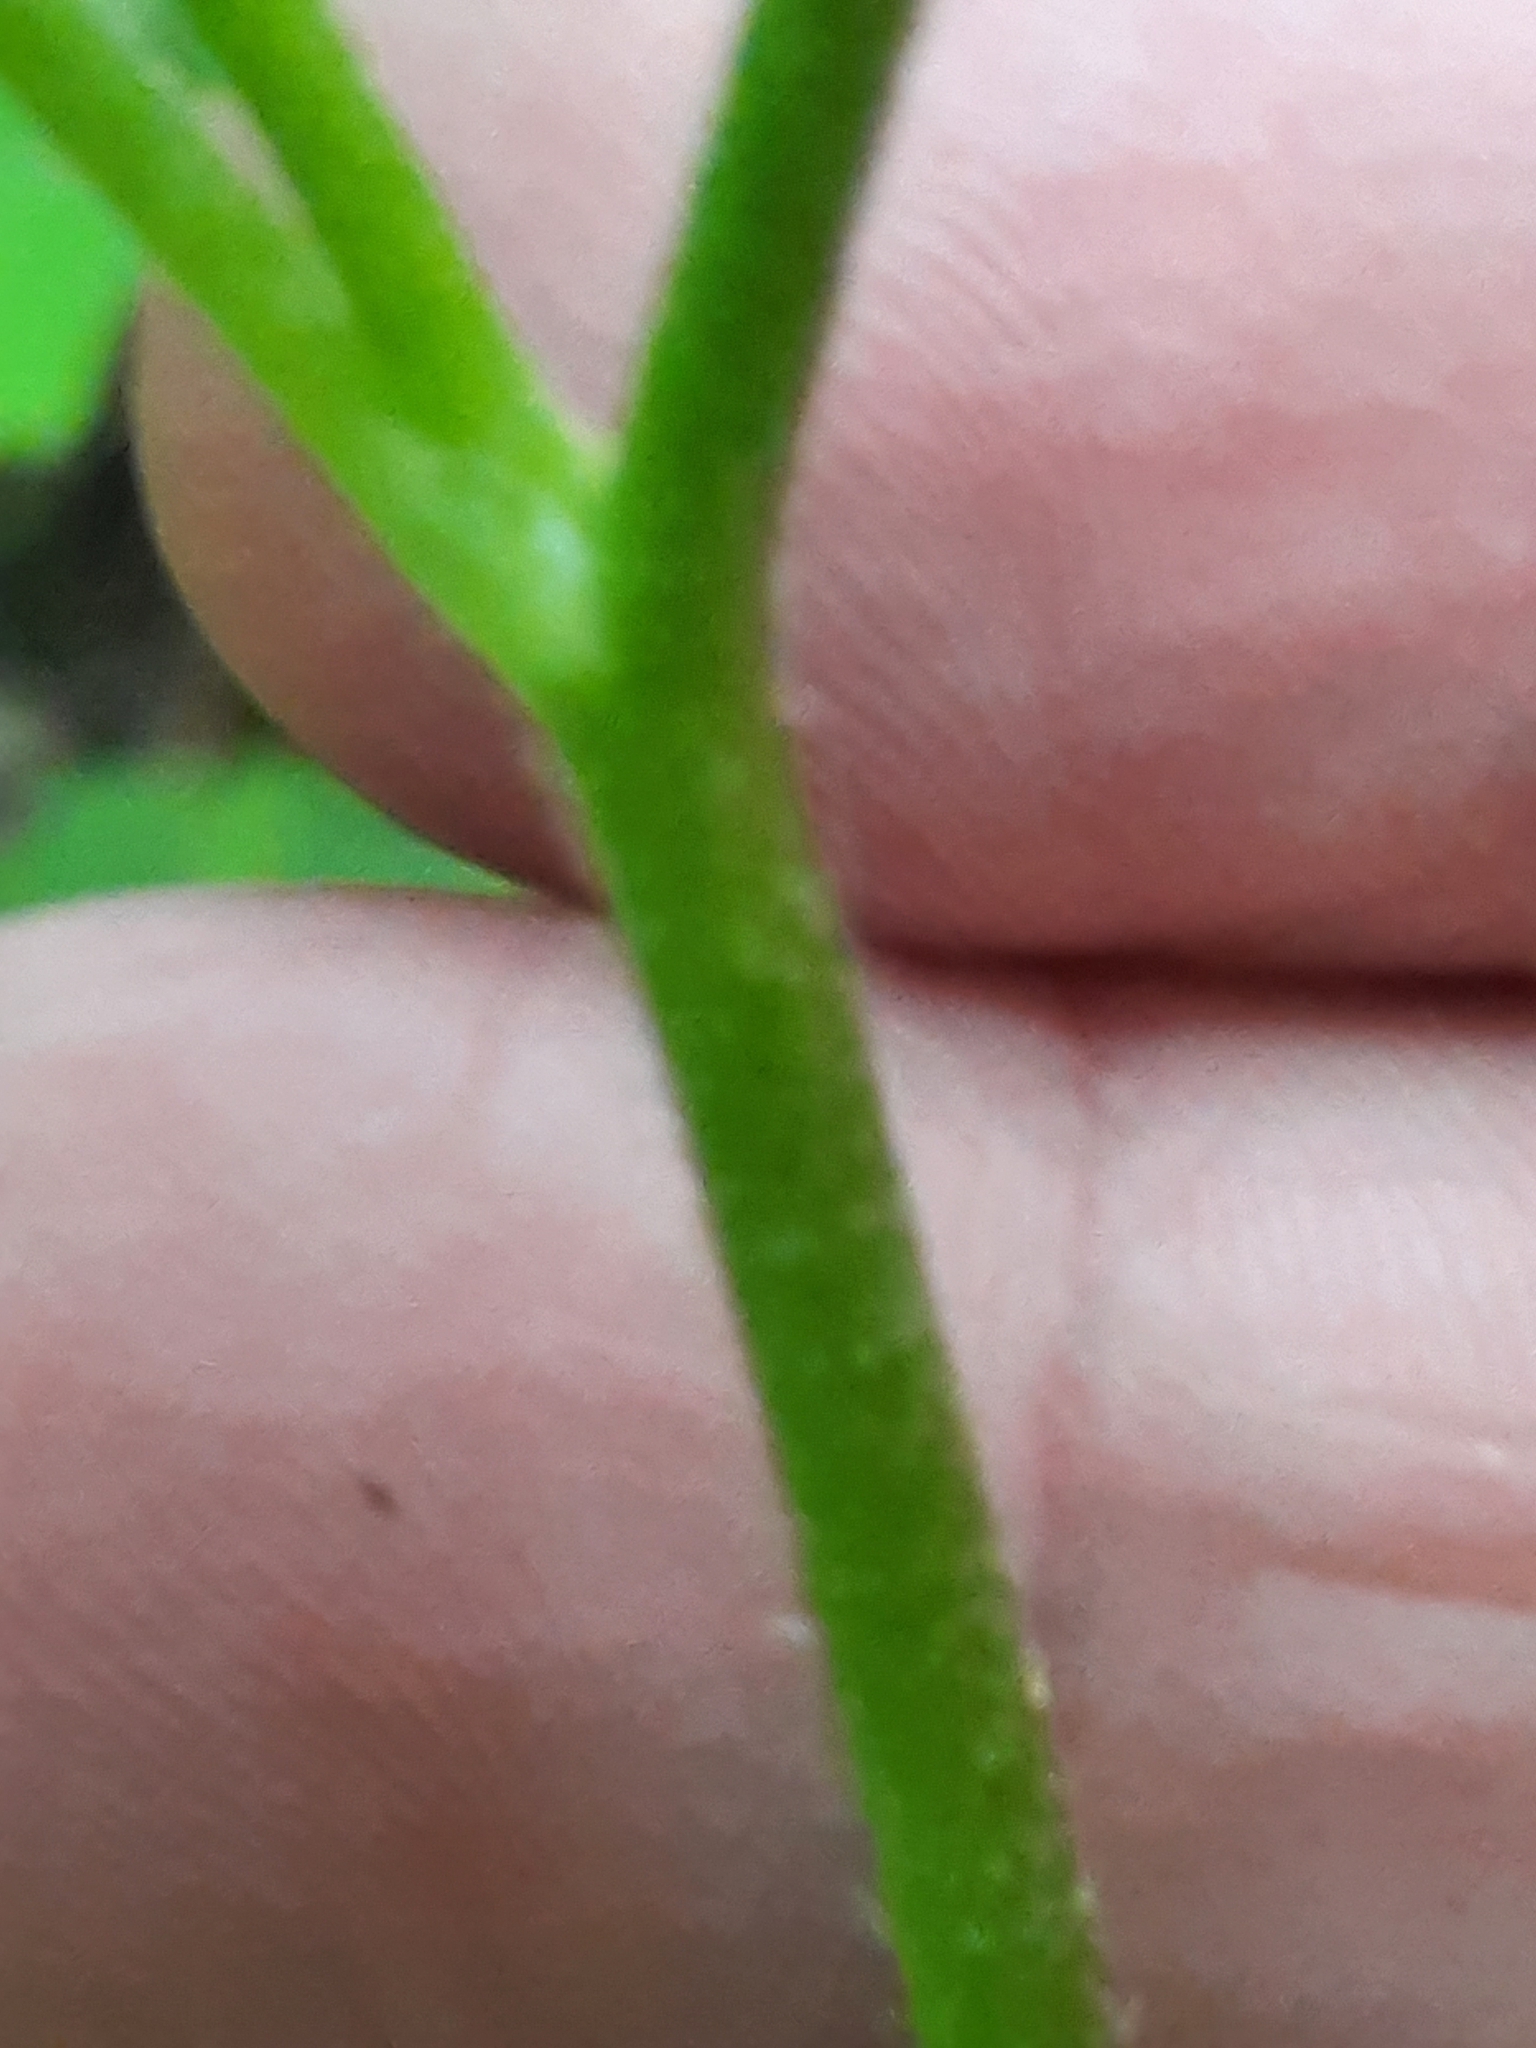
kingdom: Plantae
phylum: Tracheophyta
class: Magnoliopsida
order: Ranunculales
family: Ranunculaceae
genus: Ranunculus
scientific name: Ranunculus recurvatus
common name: Blisterwort
